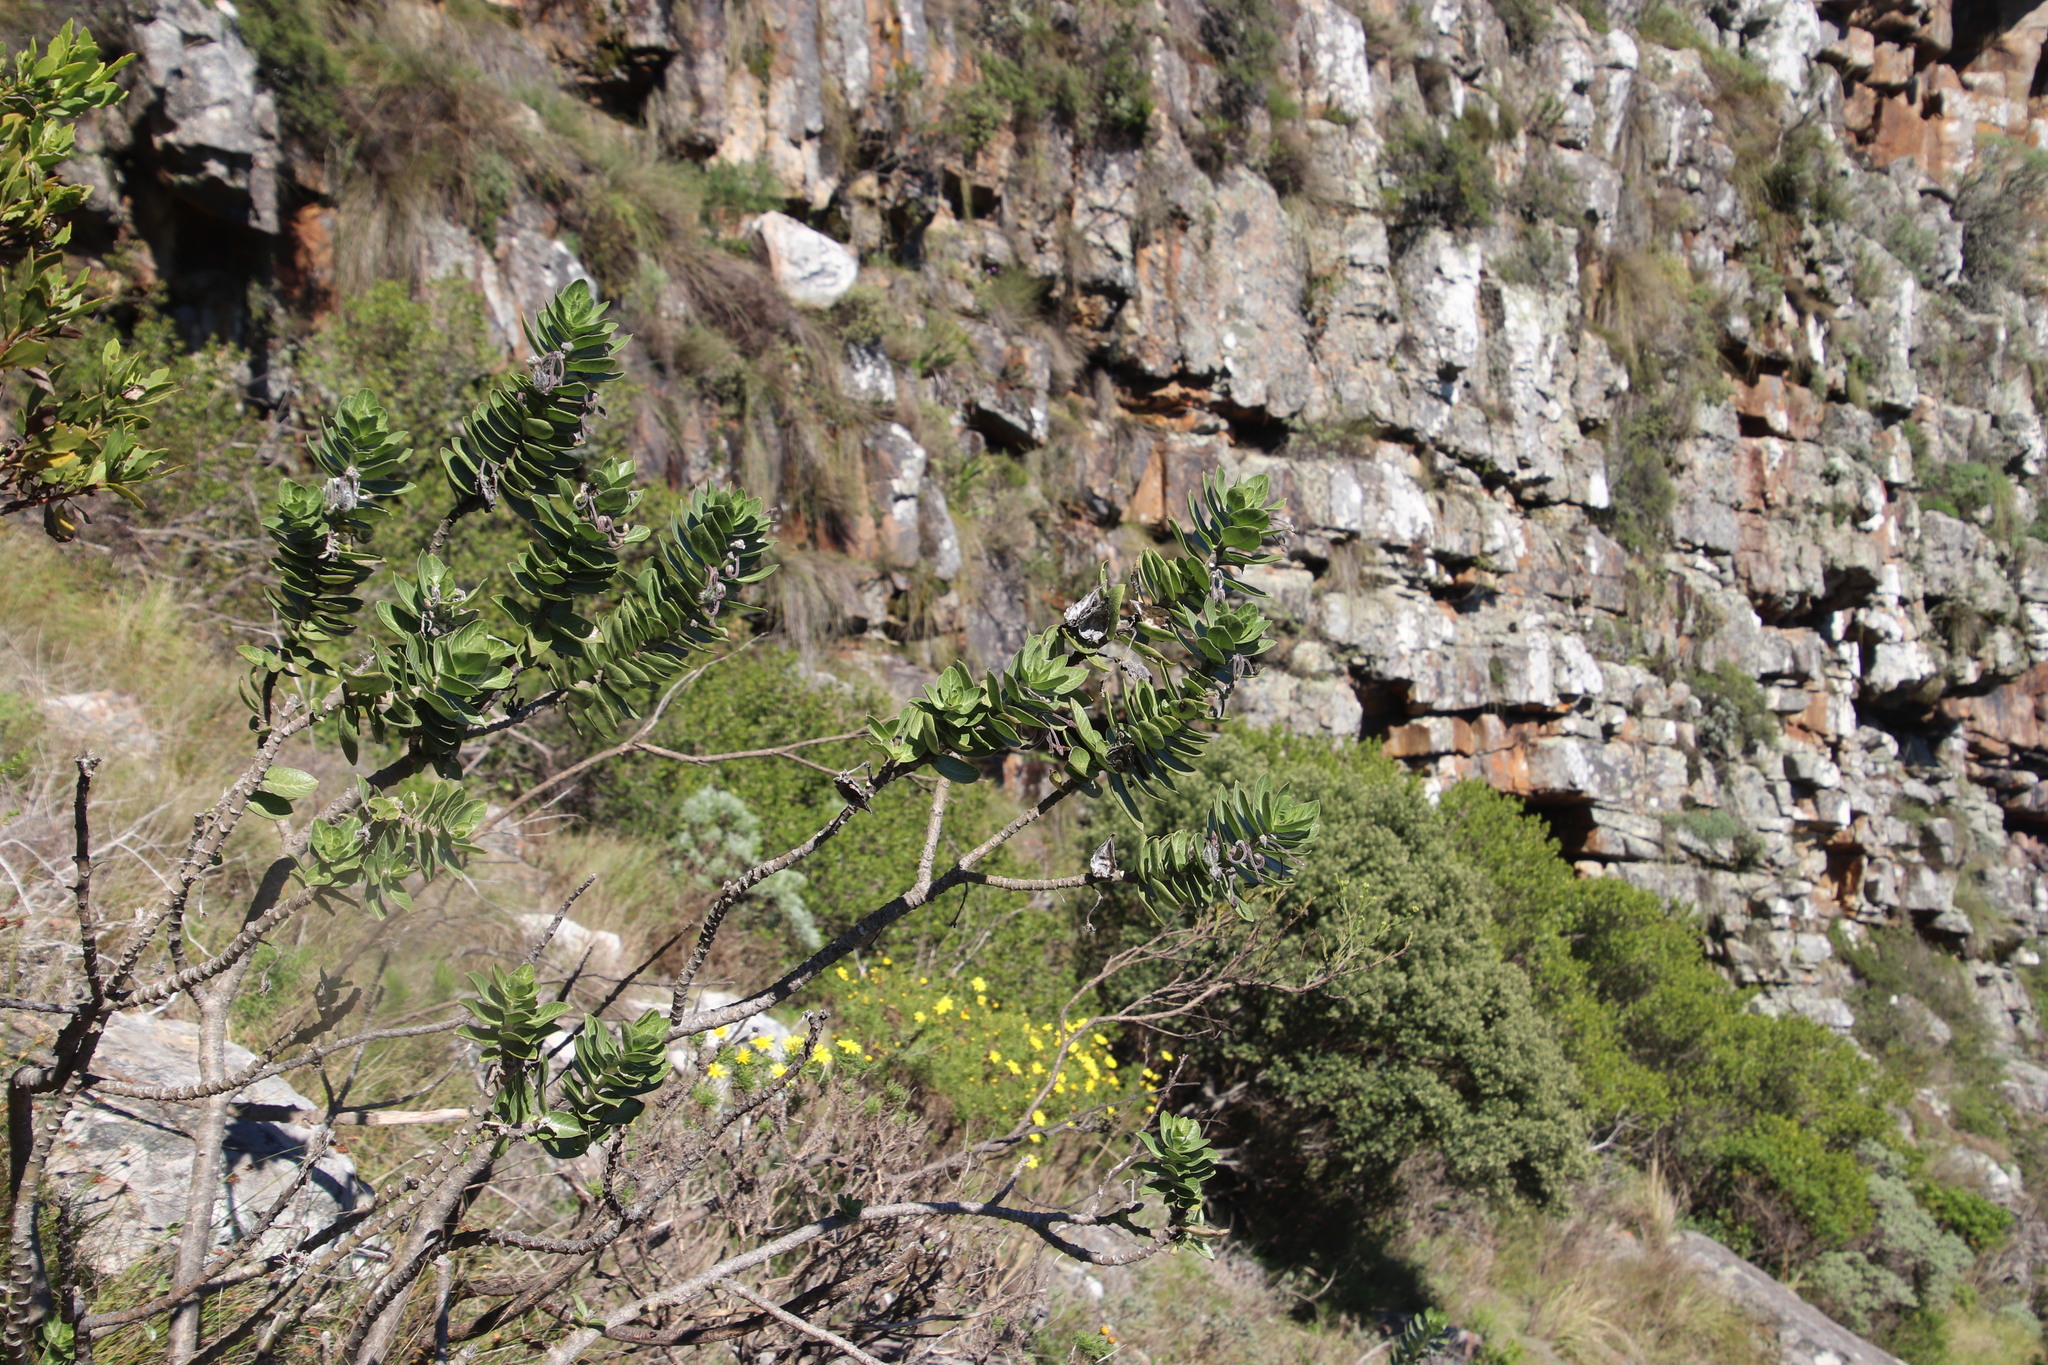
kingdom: Plantae
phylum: Tracheophyta
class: Magnoliopsida
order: Gentianales
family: Apocynaceae
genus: Gomphocarpus
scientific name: Gomphocarpus cancellatus
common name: Wild cotton
